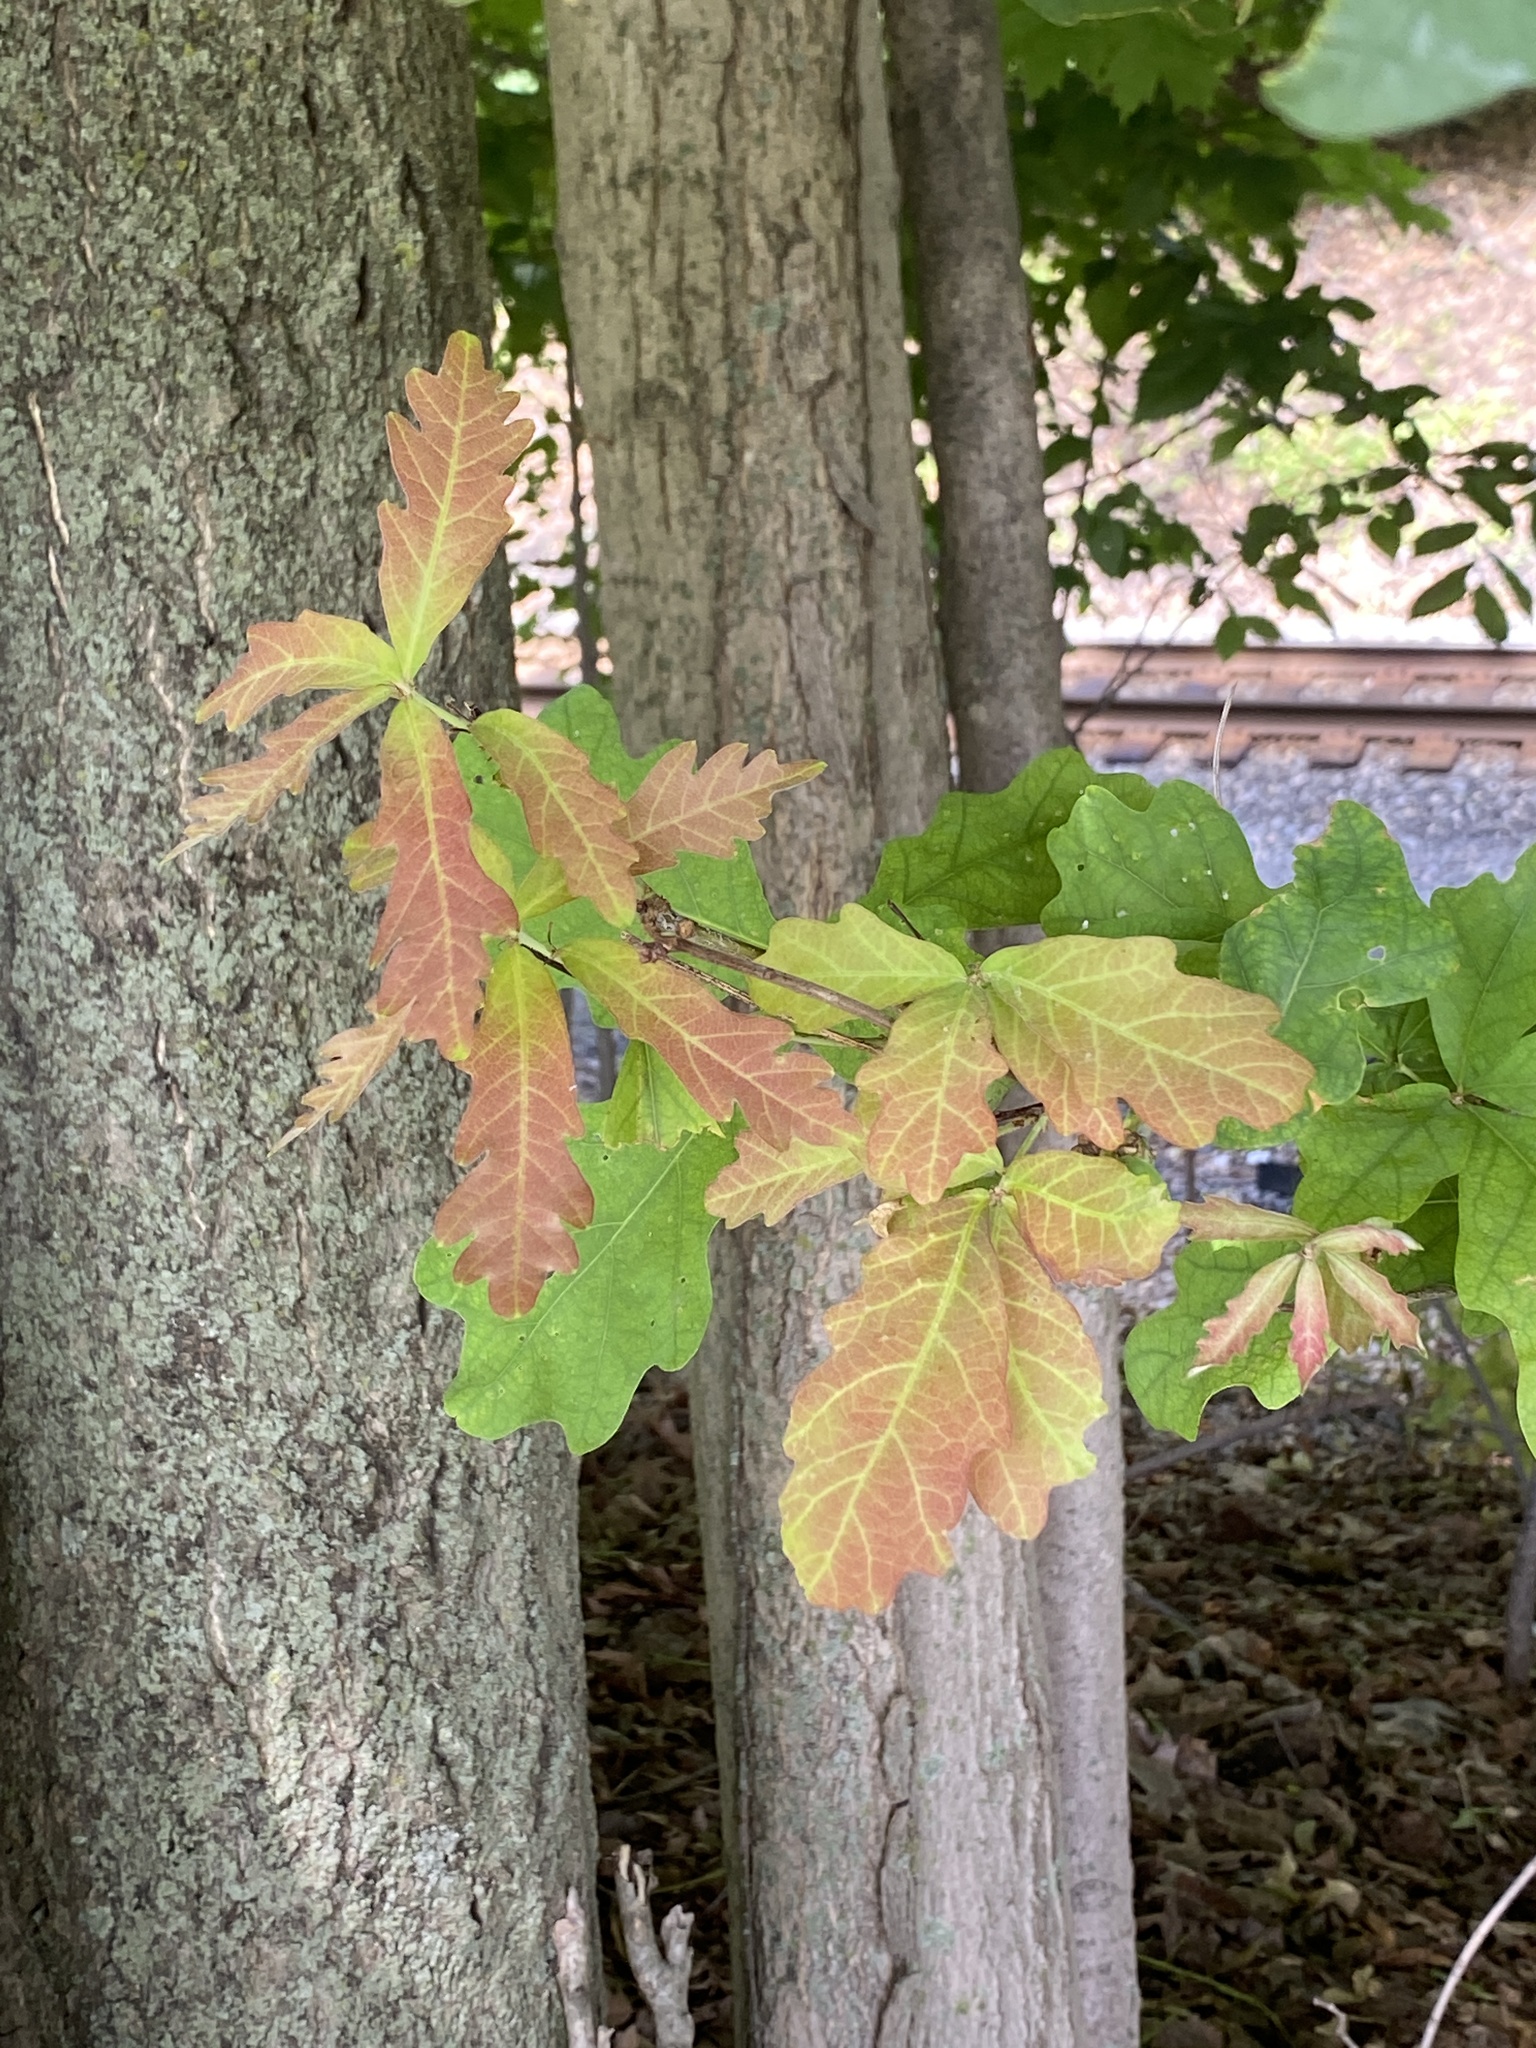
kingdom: Plantae
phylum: Tracheophyta
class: Magnoliopsida
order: Fagales
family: Fagaceae
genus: Quercus
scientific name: Quercus alba
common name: White oak
